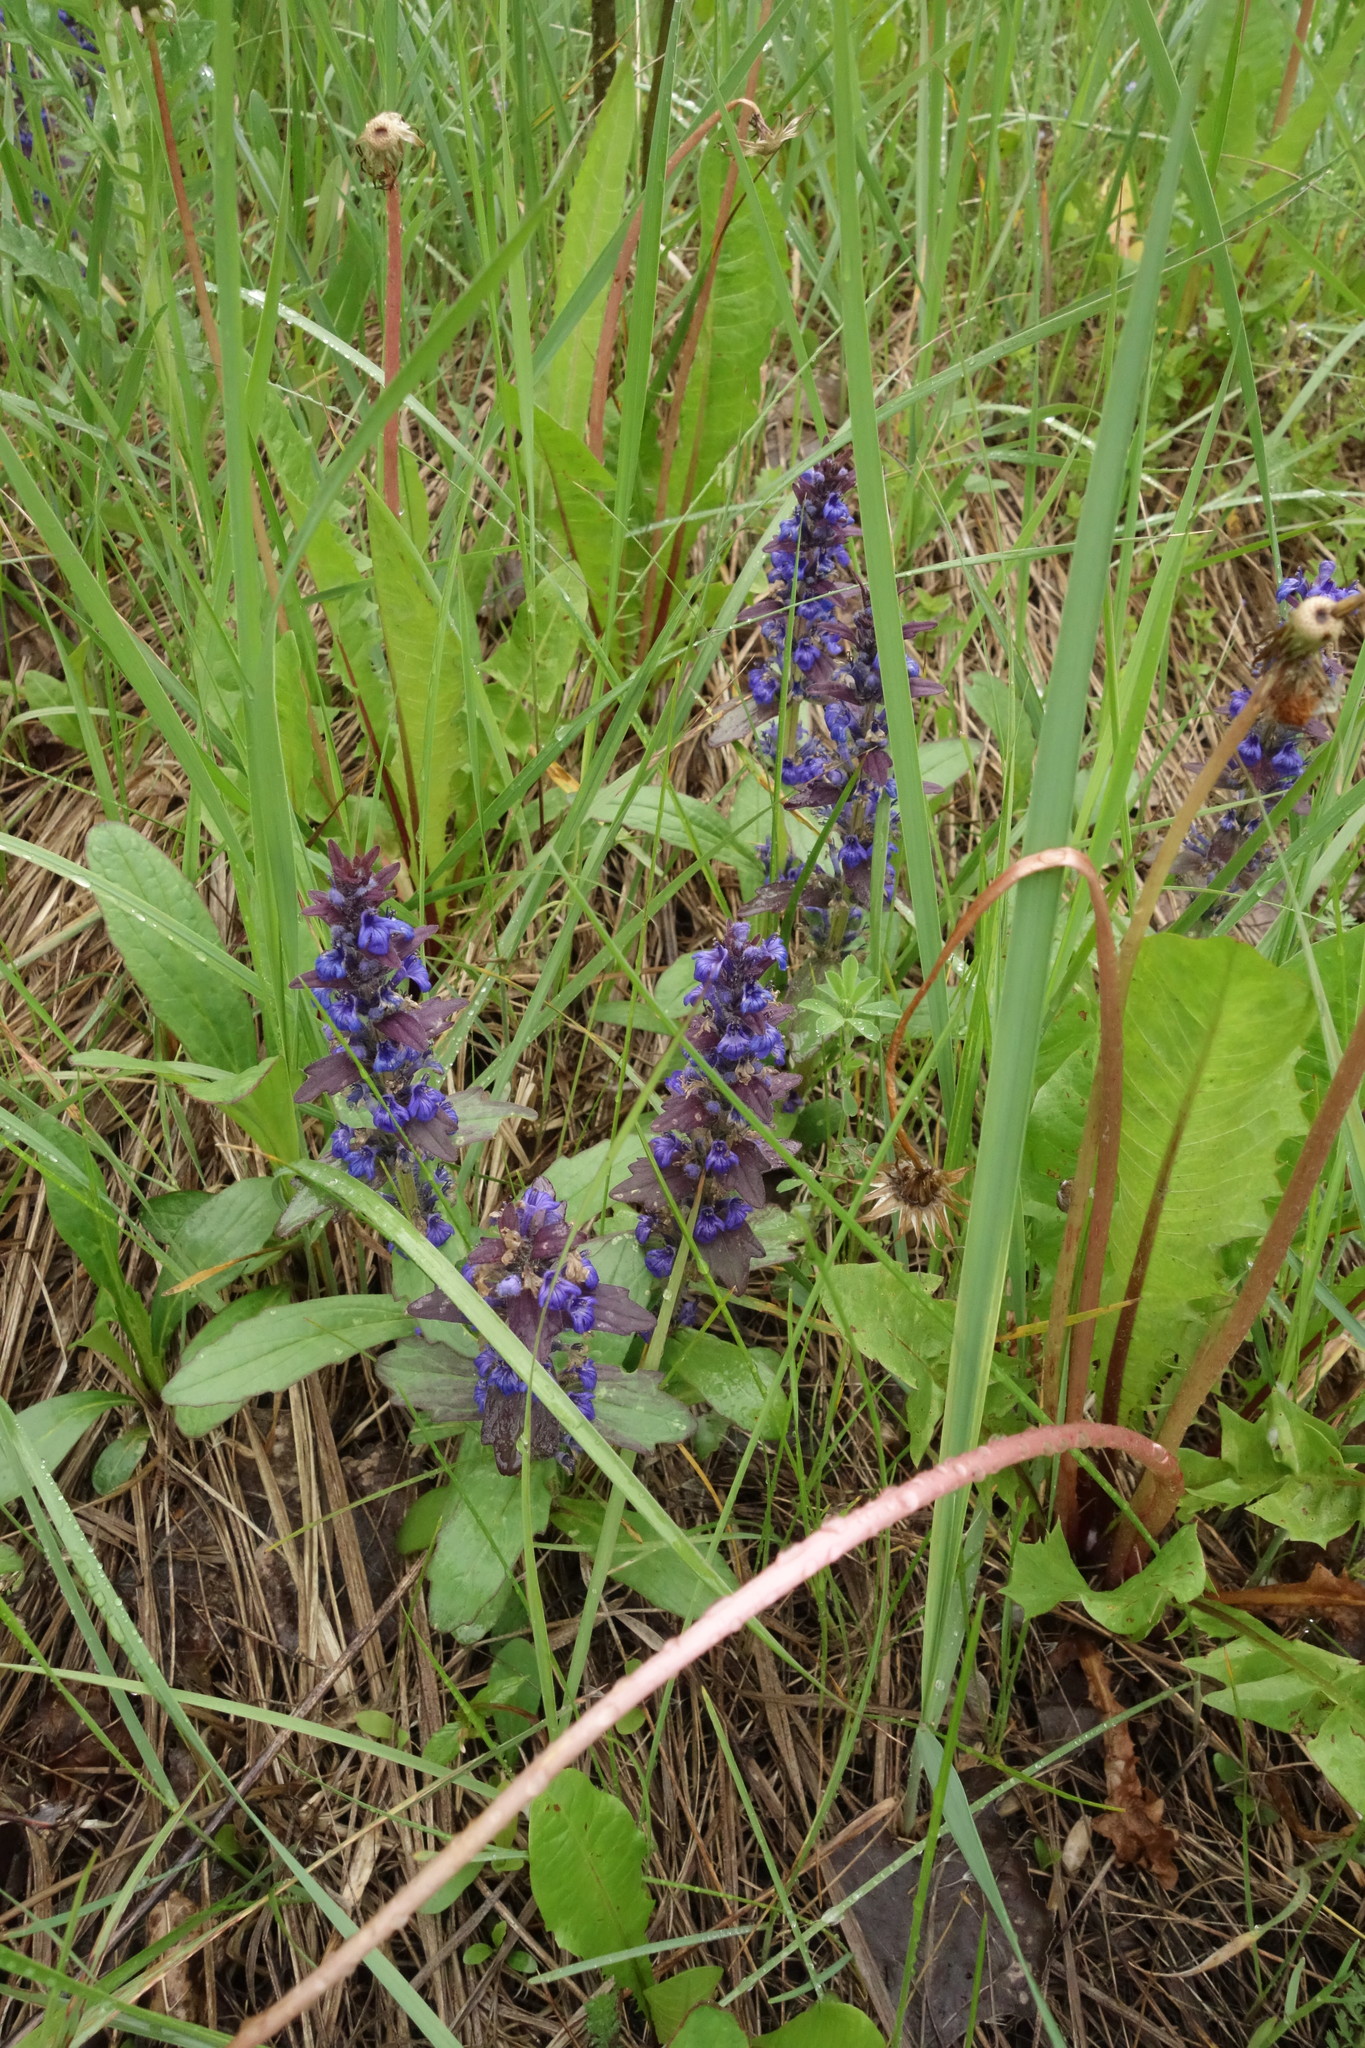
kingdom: Plantae
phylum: Tracheophyta
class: Magnoliopsida
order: Lamiales
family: Lamiaceae
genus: Ajuga
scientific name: Ajuga genevensis
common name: Blue bugle
